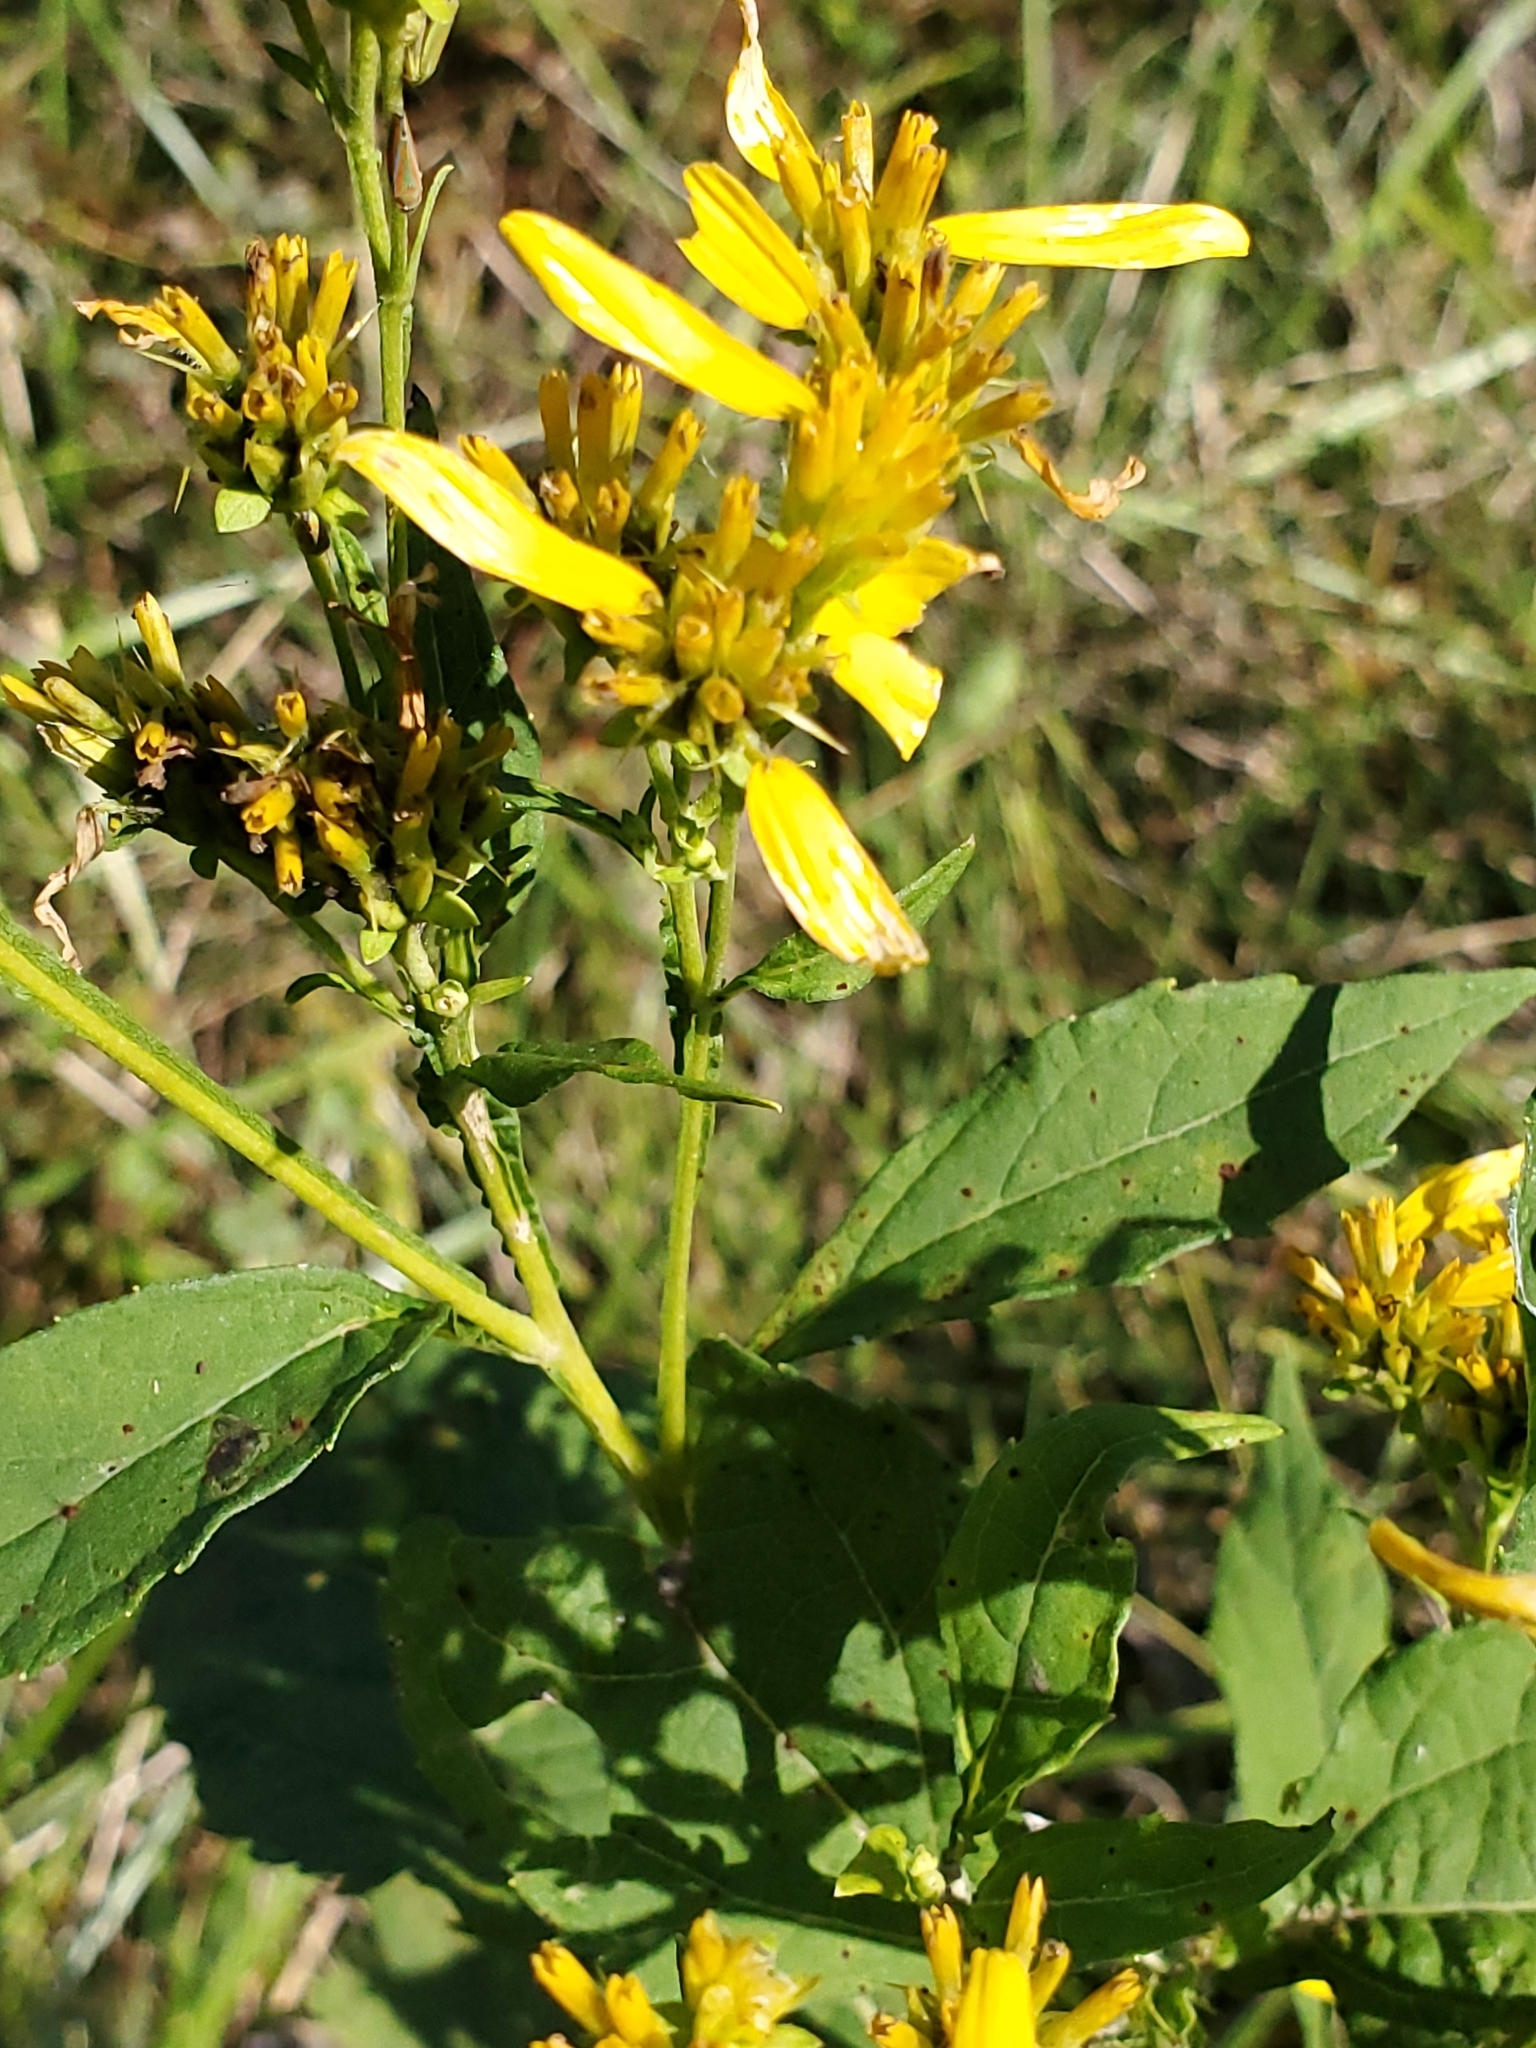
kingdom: Plantae
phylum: Tracheophyta
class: Magnoliopsida
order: Asterales
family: Asteraceae
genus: Verbesina
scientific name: Verbesina occidentalis
